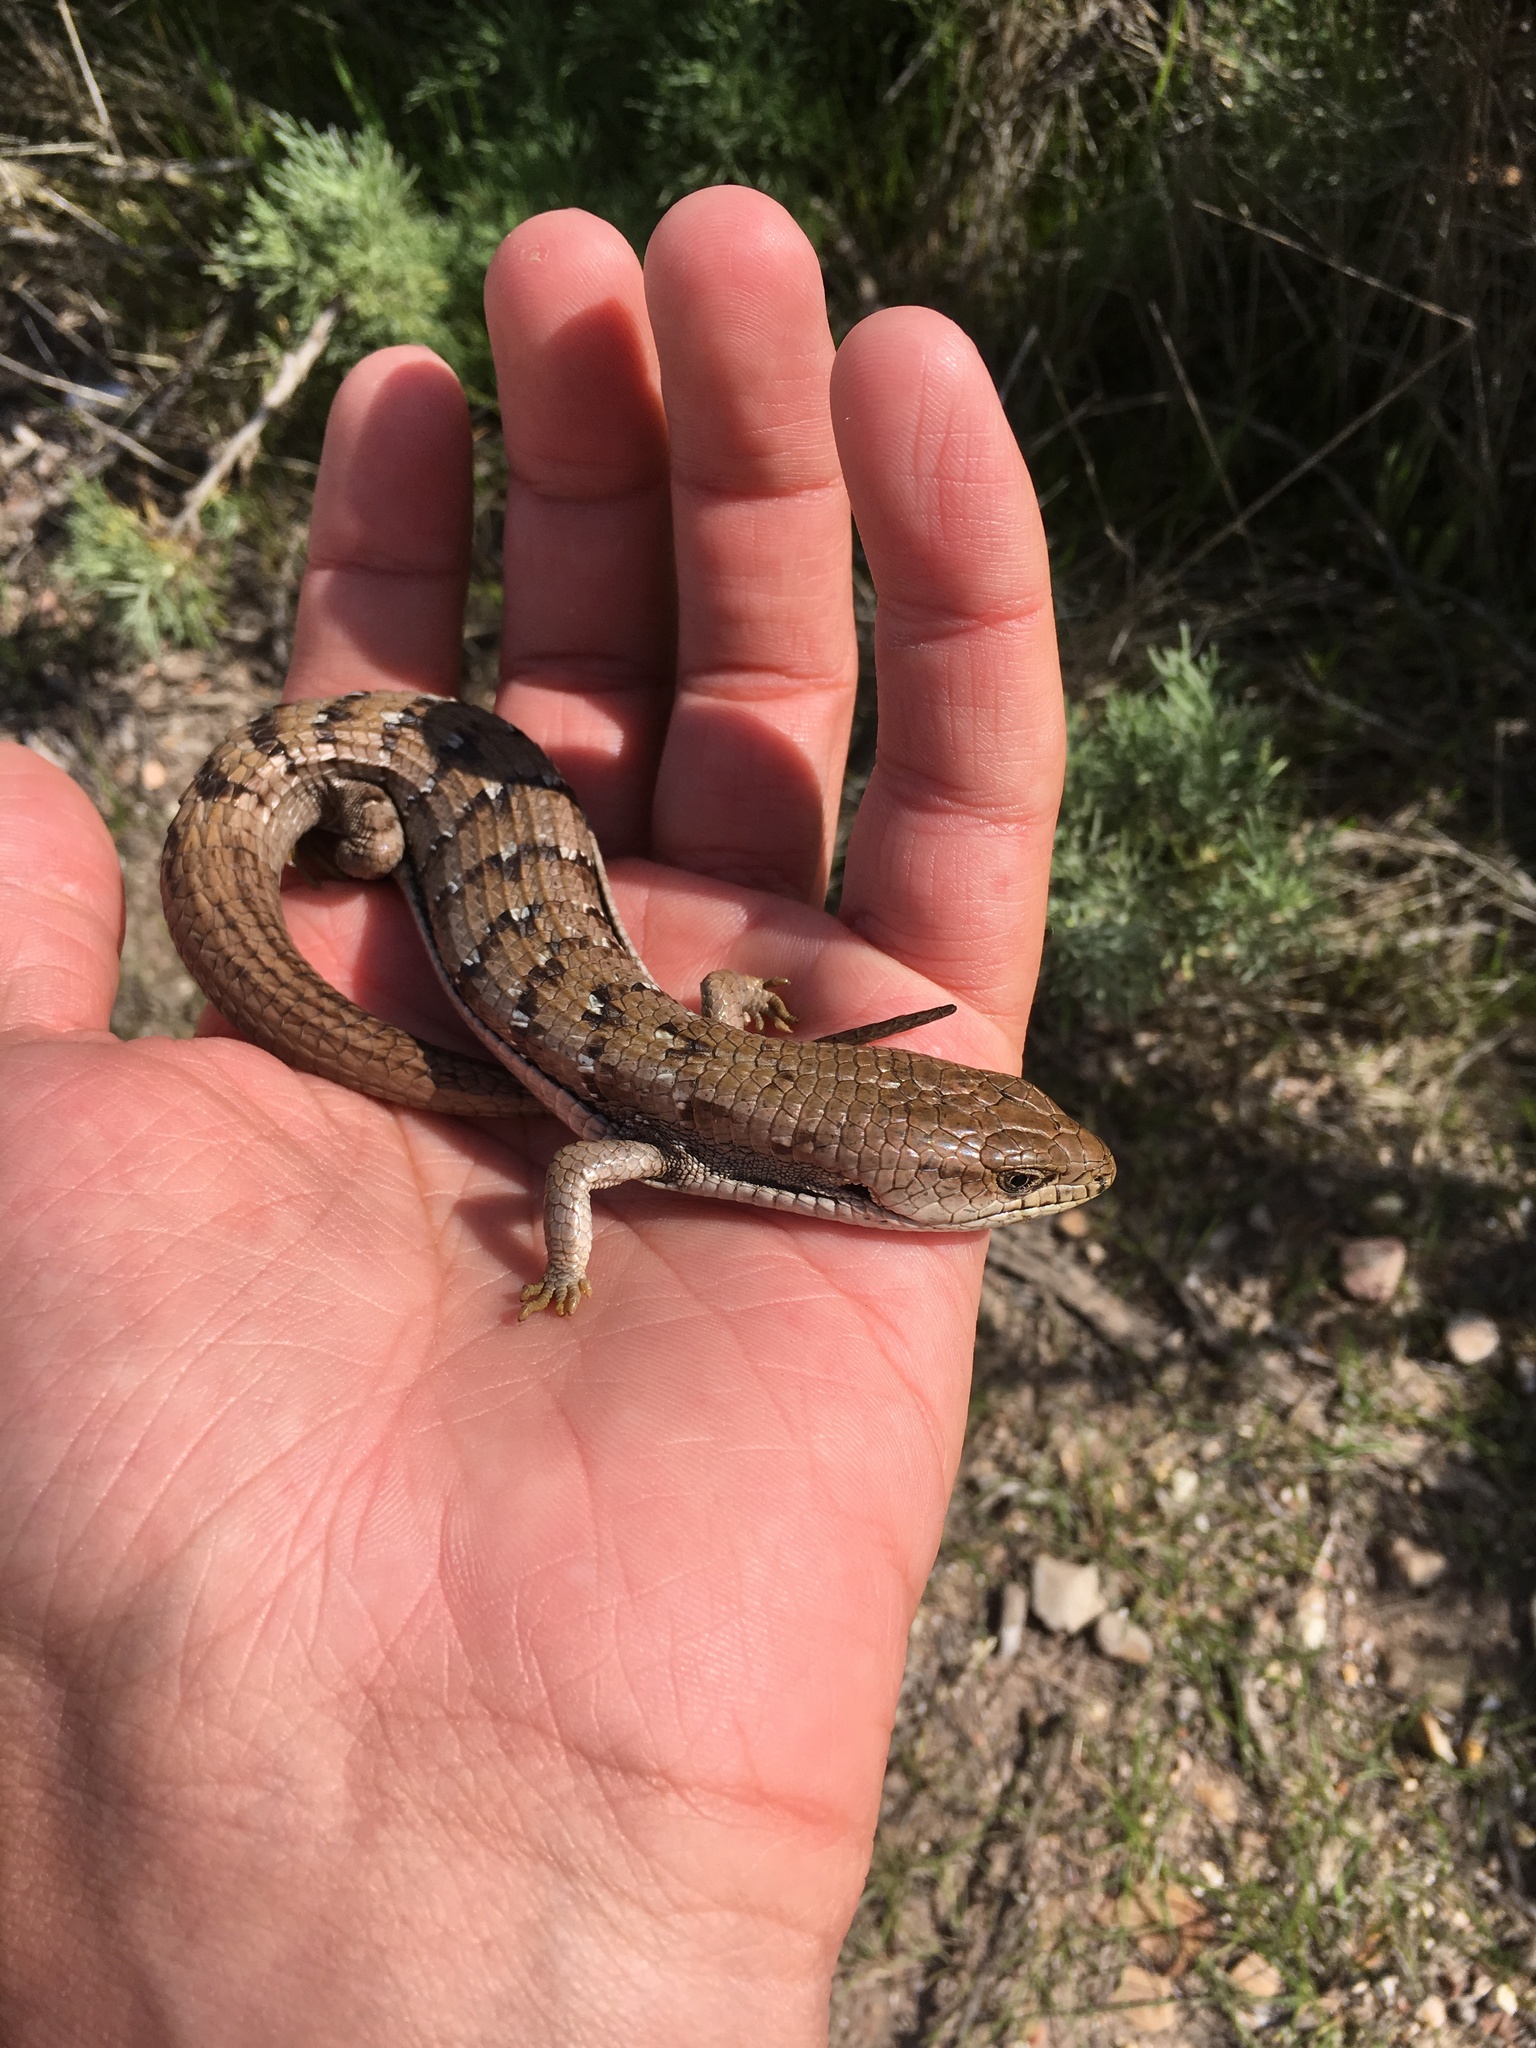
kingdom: Animalia
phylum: Chordata
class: Squamata
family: Anguidae
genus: Elgaria
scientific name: Elgaria multicarinata
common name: Southern alligator lizard
